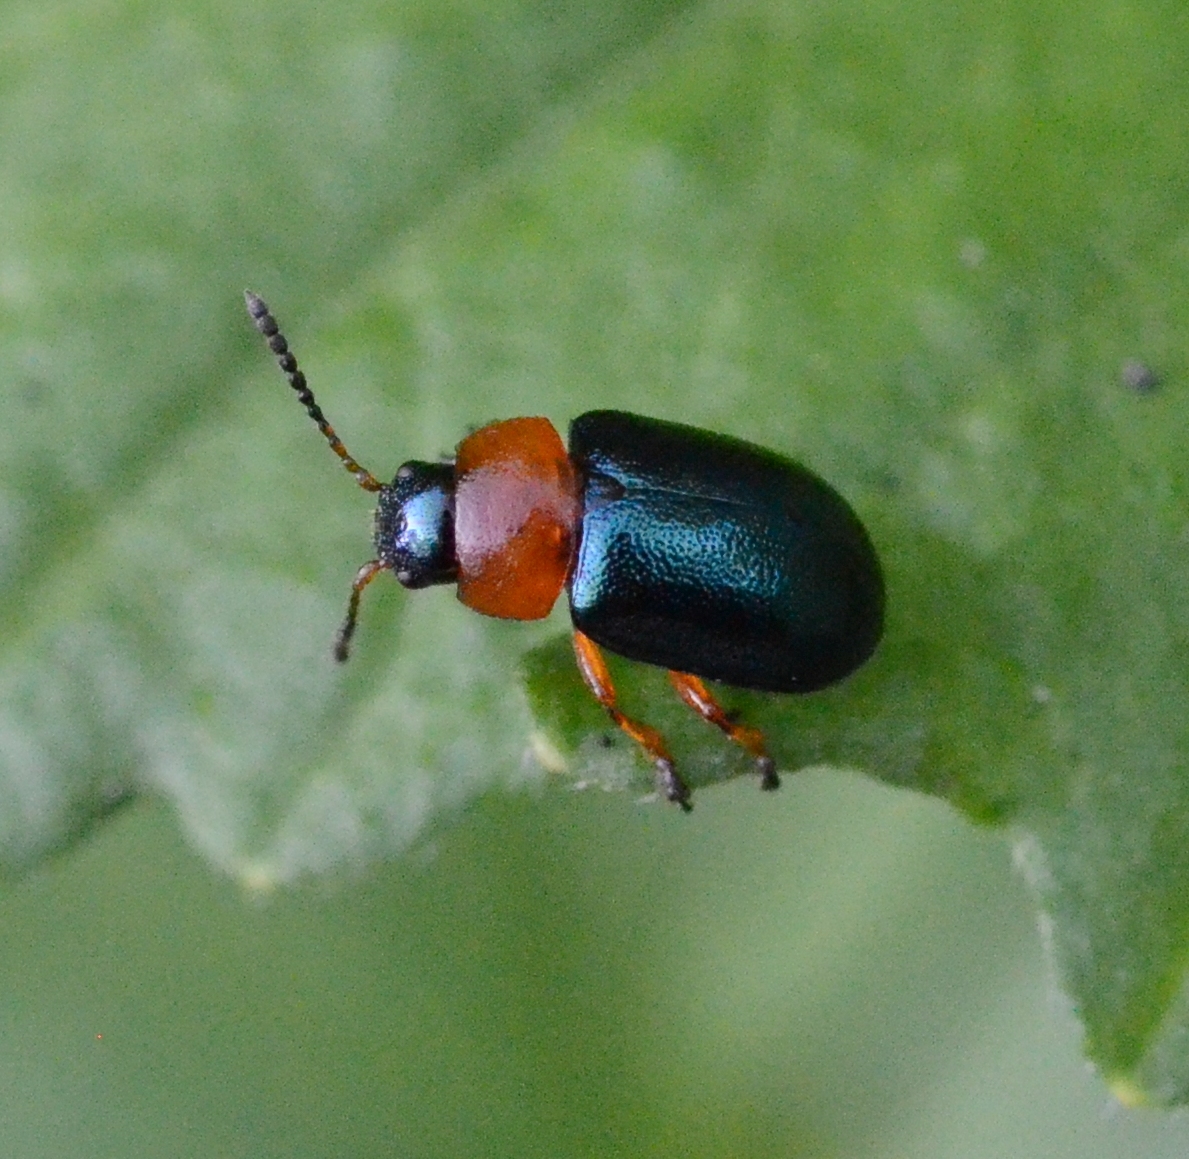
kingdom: Animalia
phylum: Arthropoda
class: Insecta
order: Coleoptera
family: Chrysomelidae
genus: Gastrophysa
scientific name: Gastrophysa polygoni
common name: Knotweed leaf beetle
